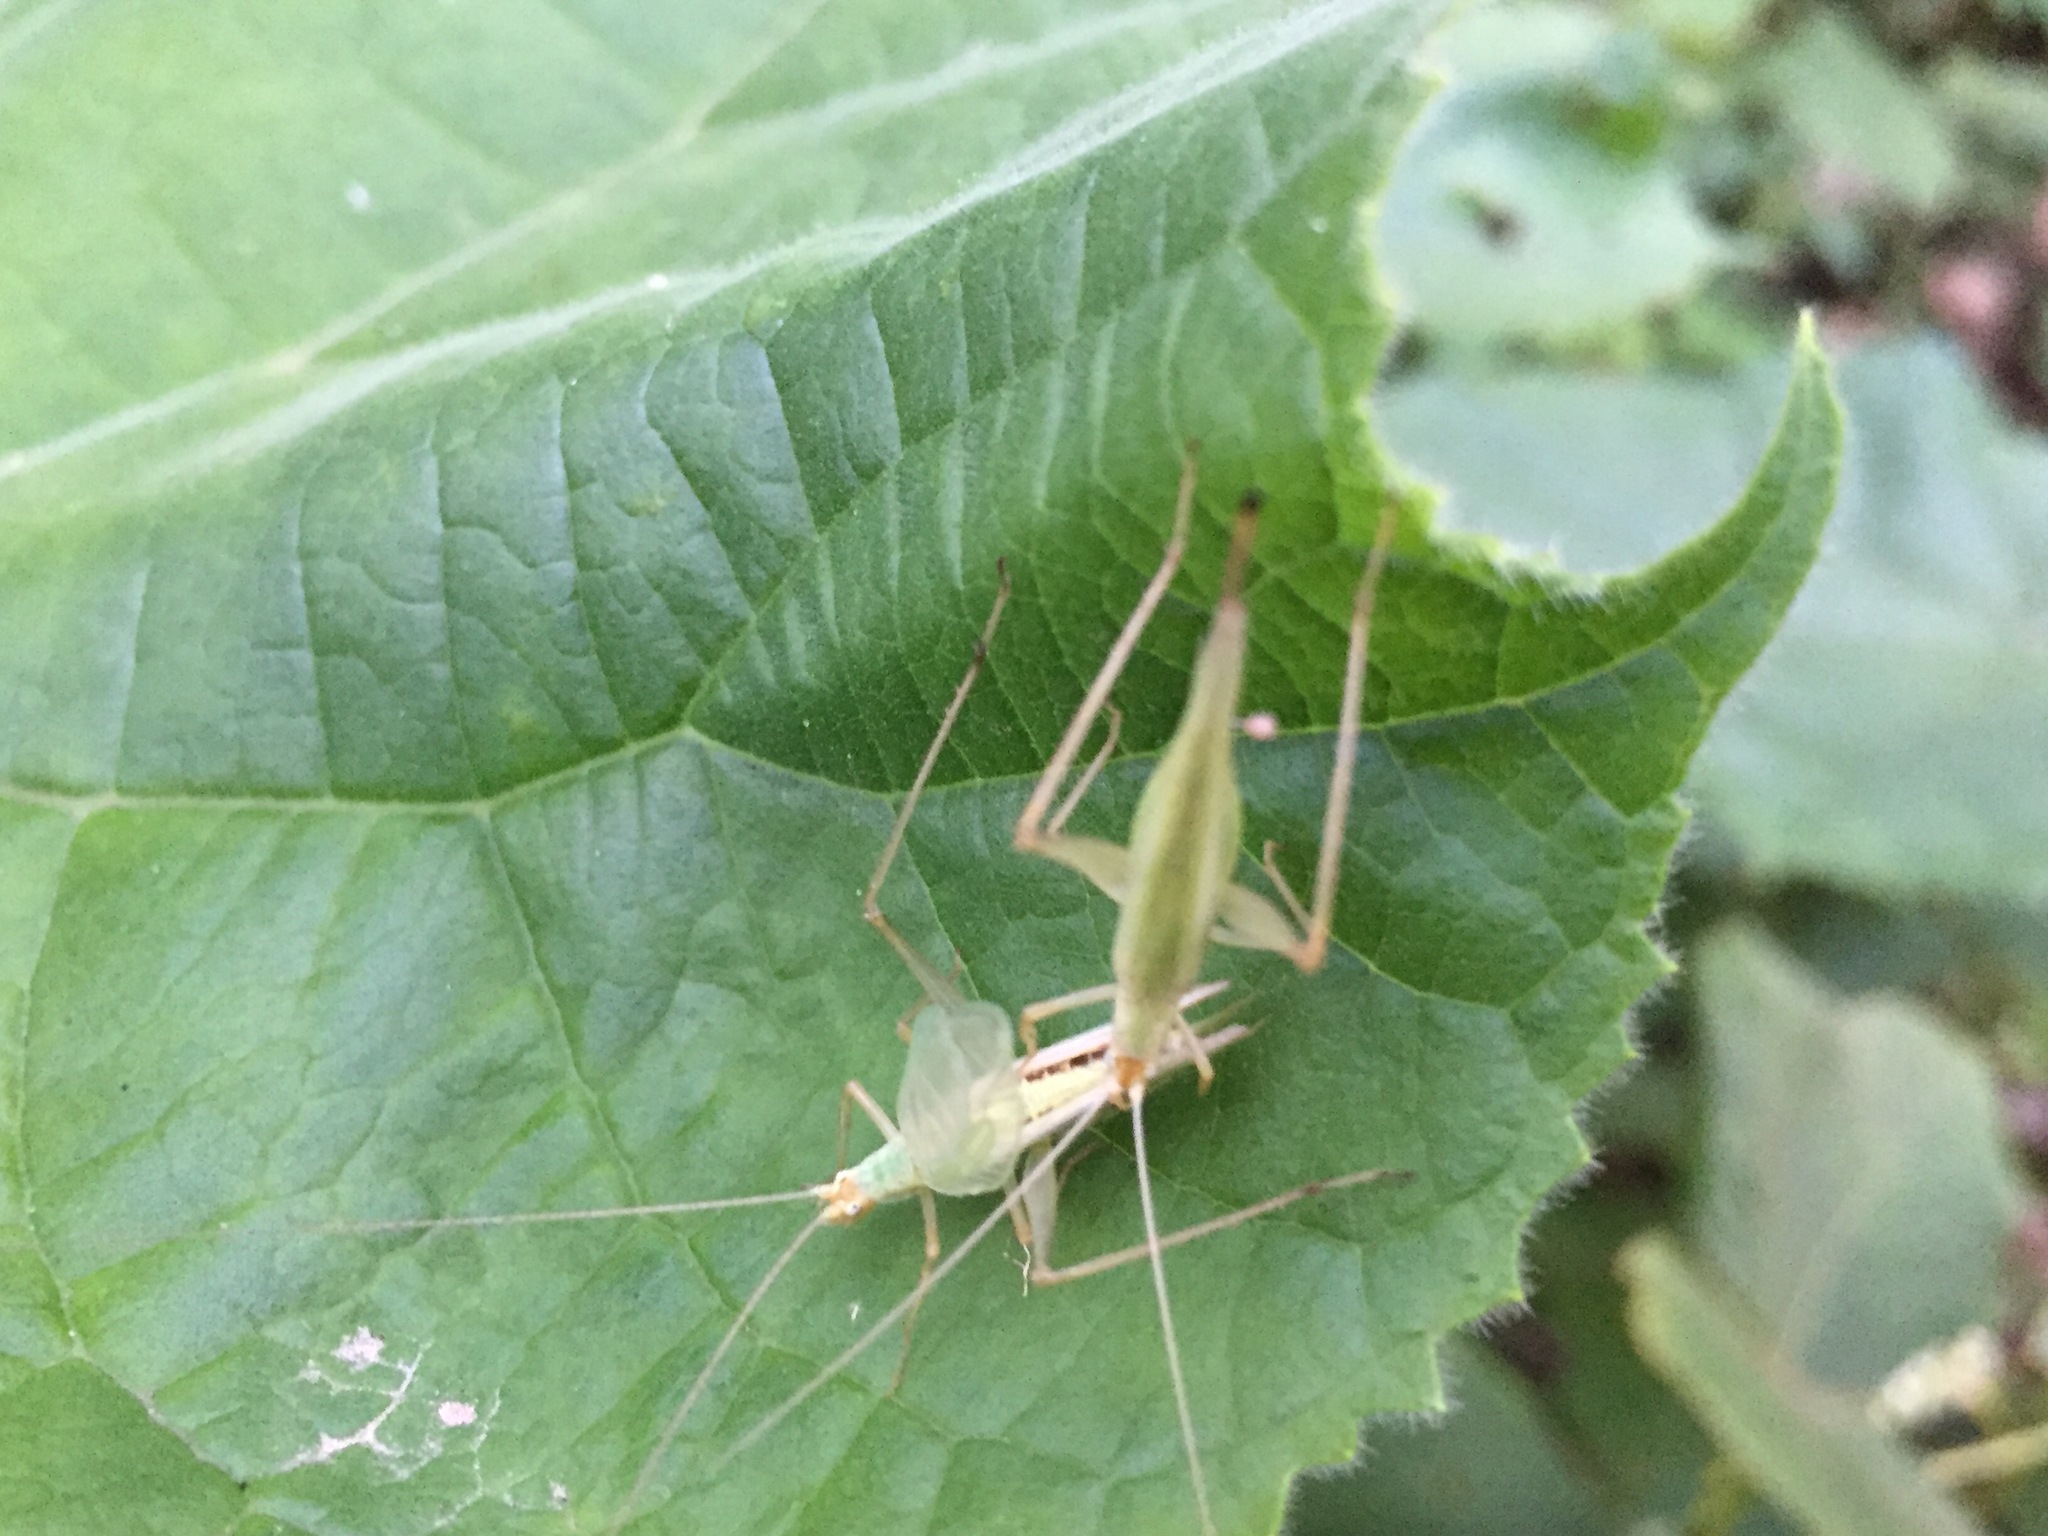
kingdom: Animalia
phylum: Arthropoda
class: Insecta
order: Orthoptera
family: Gryllidae
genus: Oecanthus
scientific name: Oecanthus longicauda
